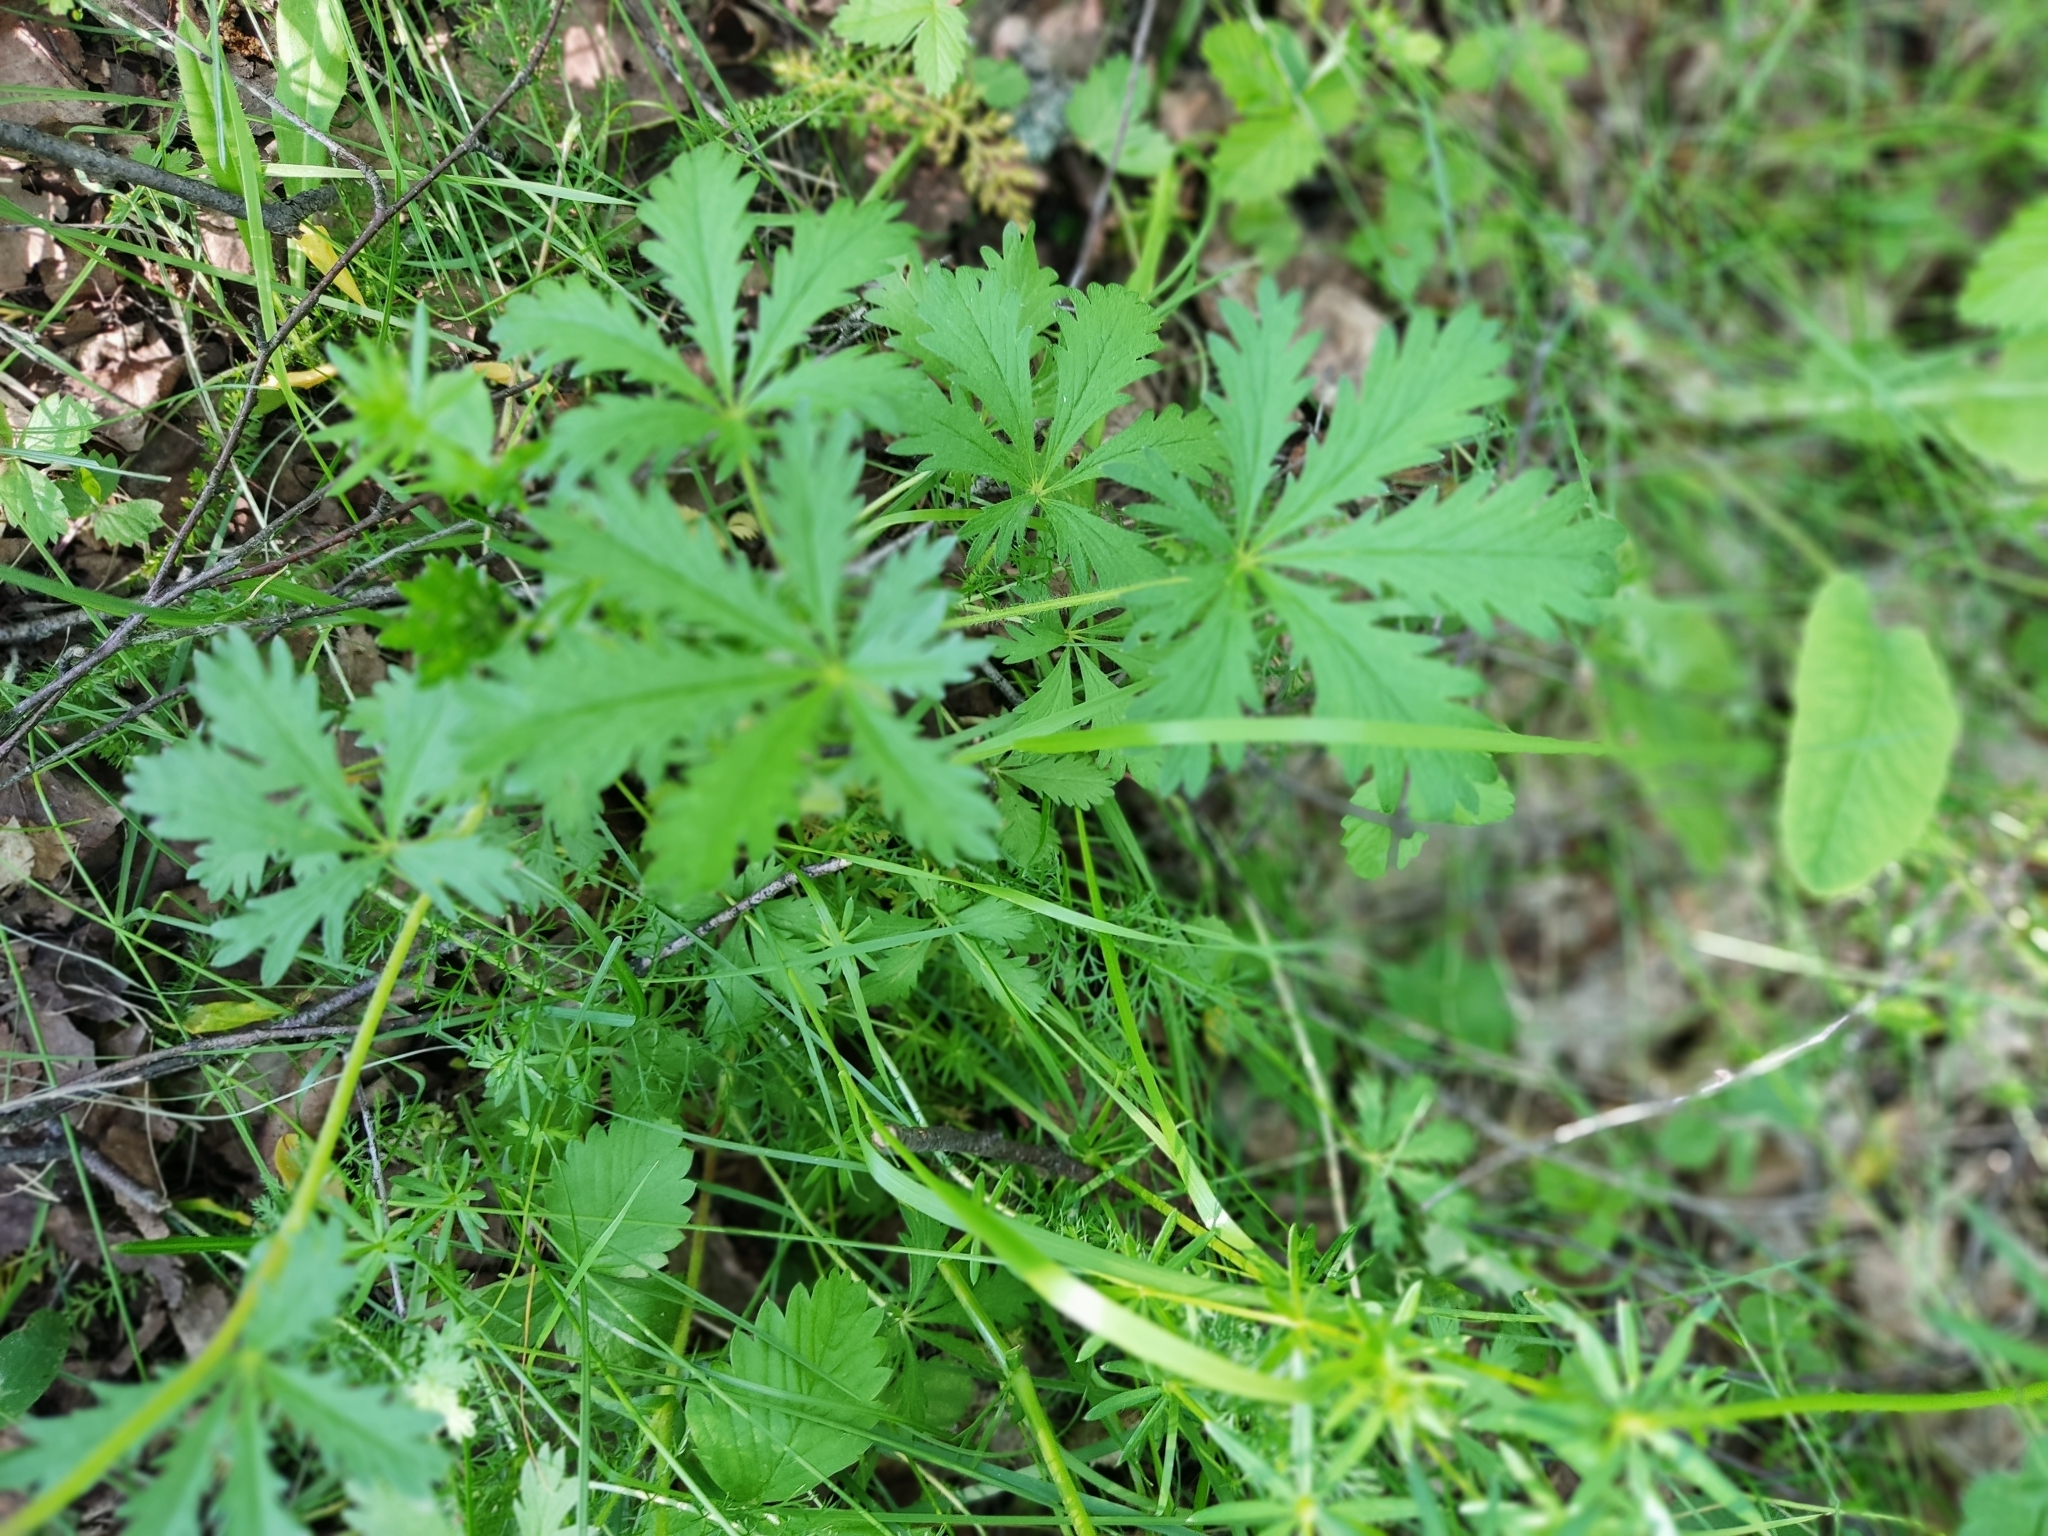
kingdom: Plantae
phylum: Tracheophyta
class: Magnoliopsida
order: Rosales
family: Rosaceae
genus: Potentilla
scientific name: Potentilla thuringiaca
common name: European cinquefoil
